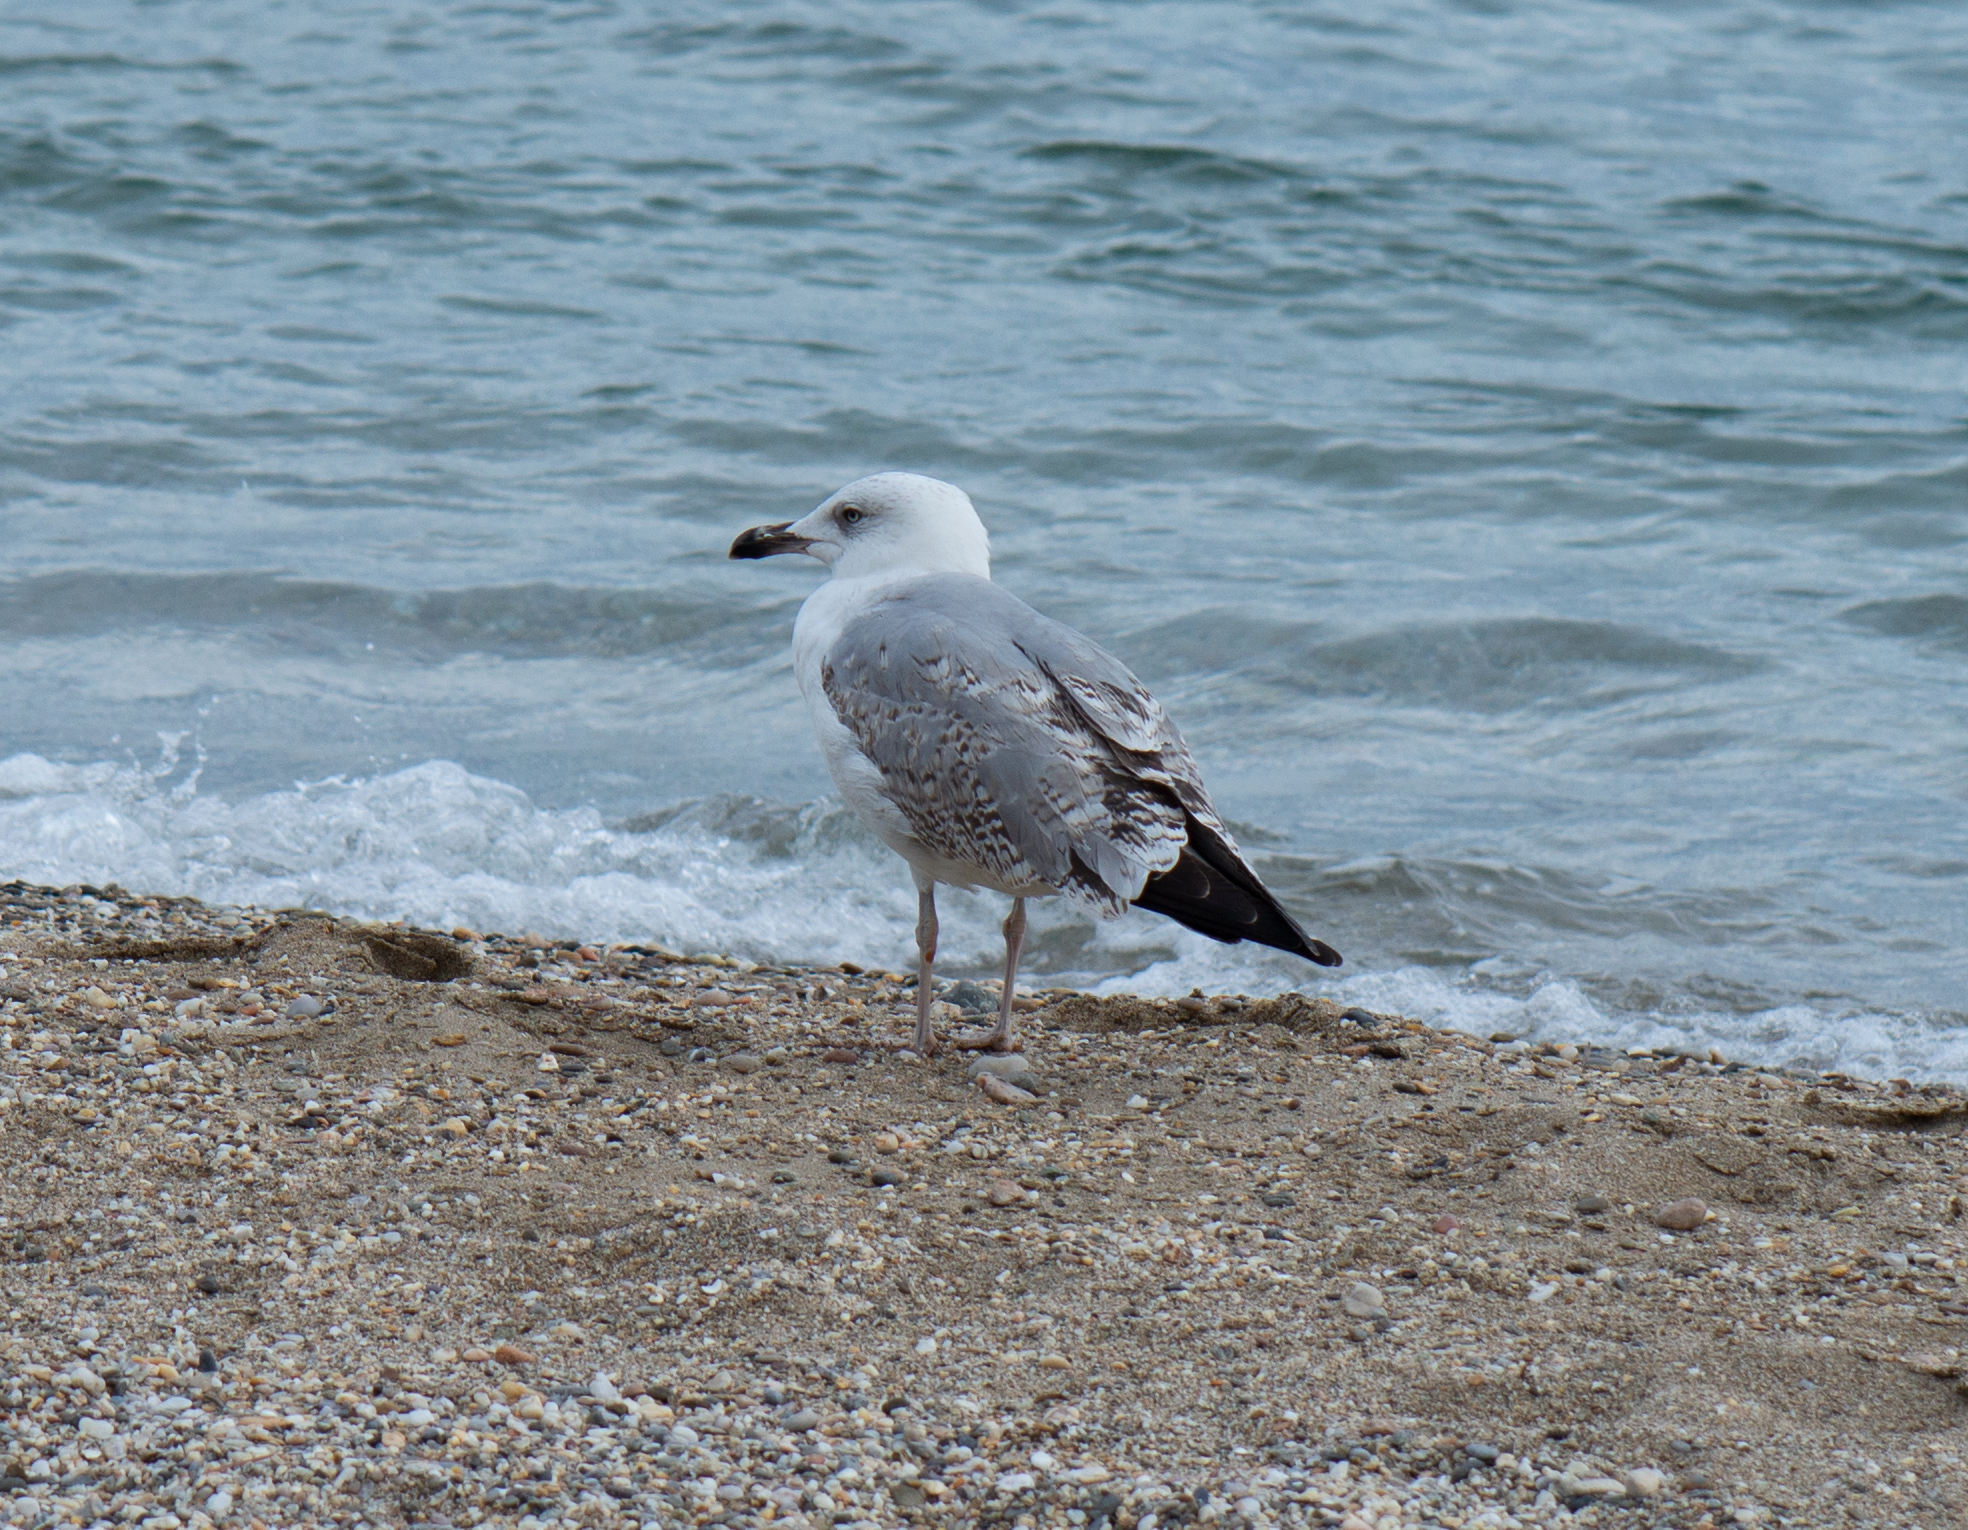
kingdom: Animalia
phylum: Chordata
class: Aves
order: Charadriiformes
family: Laridae
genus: Larus
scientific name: Larus michahellis
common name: Yellow-legged gull
